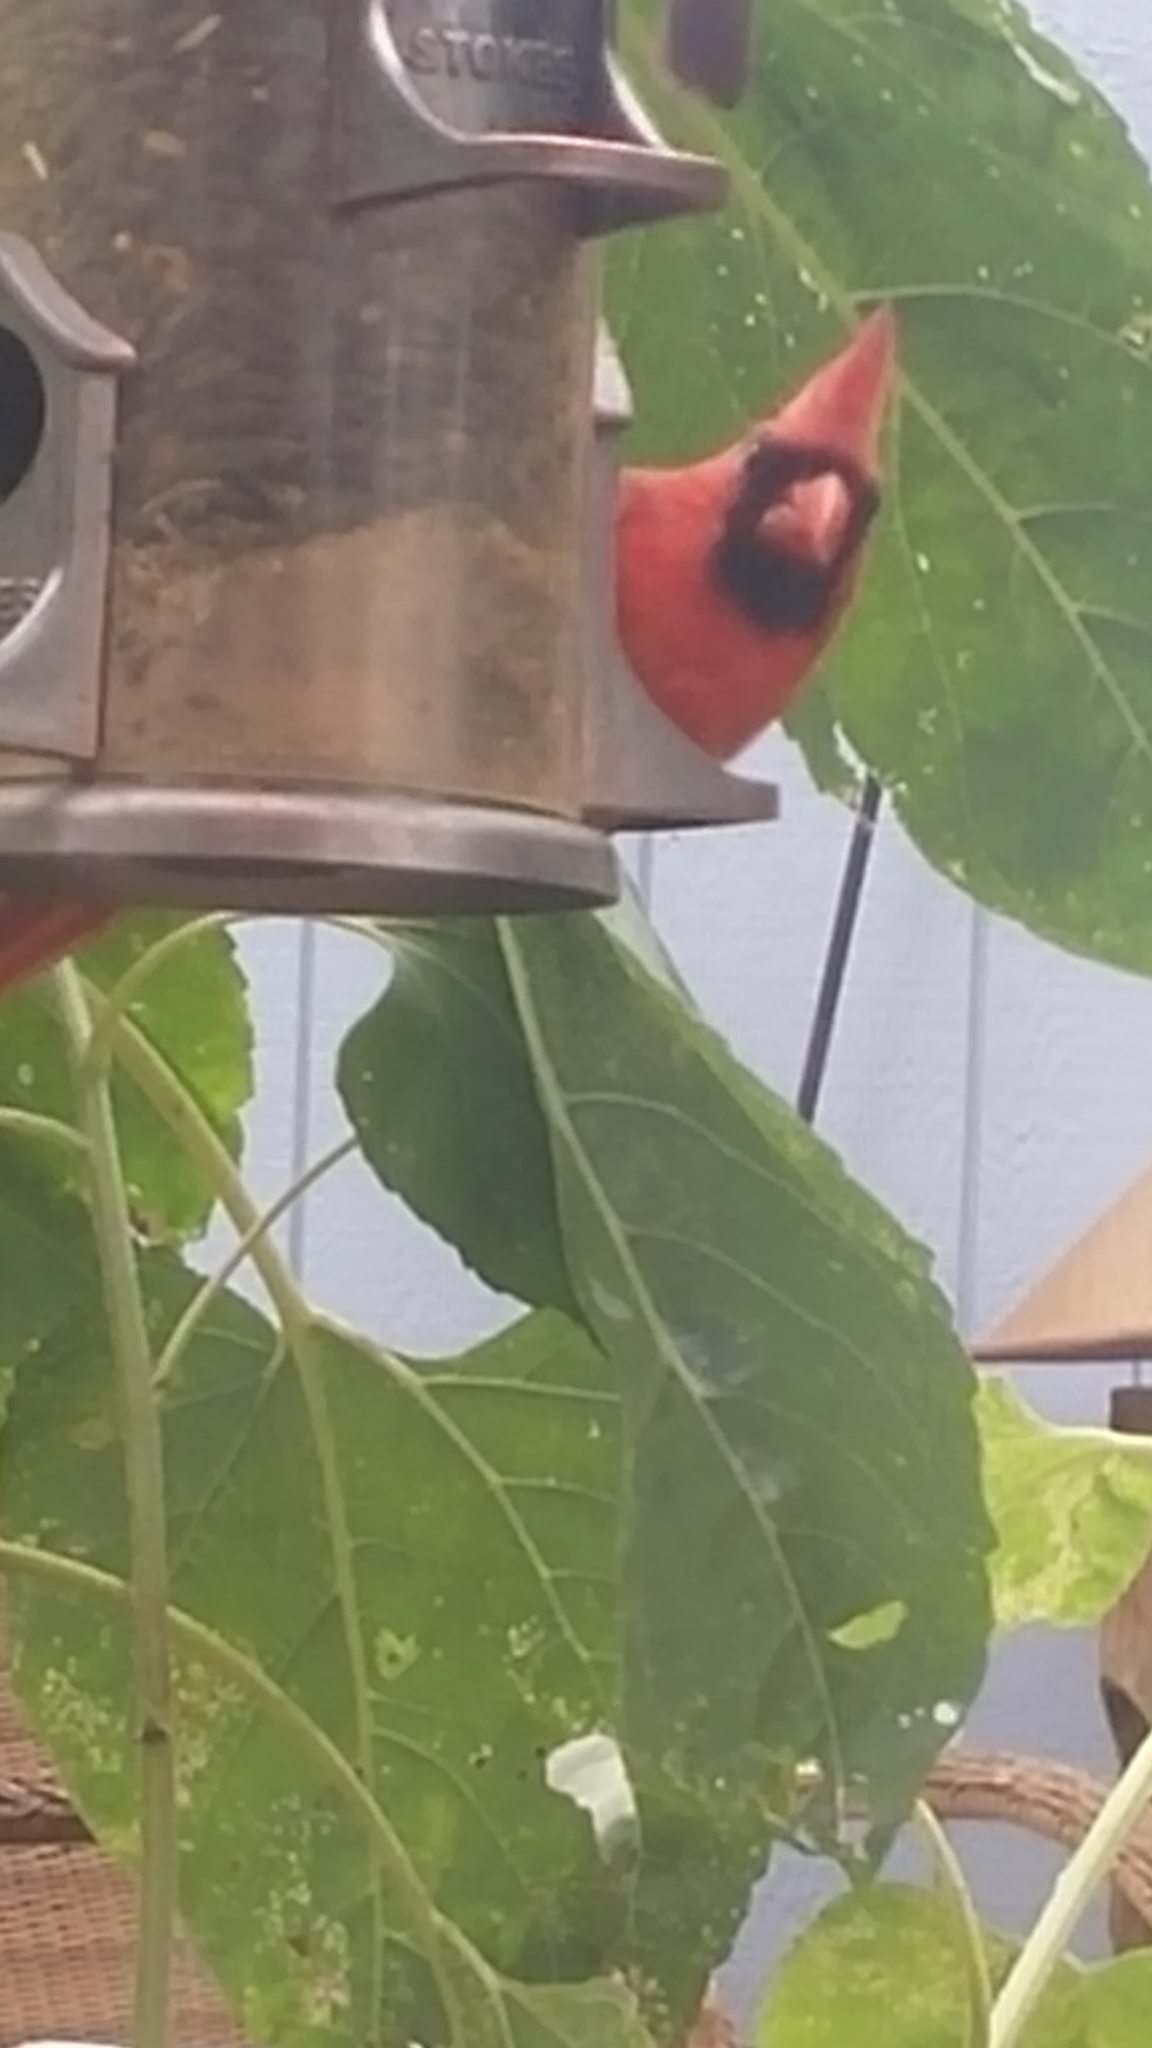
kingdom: Animalia
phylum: Chordata
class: Aves
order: Passeriformes
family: Cardinalidae
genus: Cardinalis
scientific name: Cardinalis cardinalis
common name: Northern cardinal
